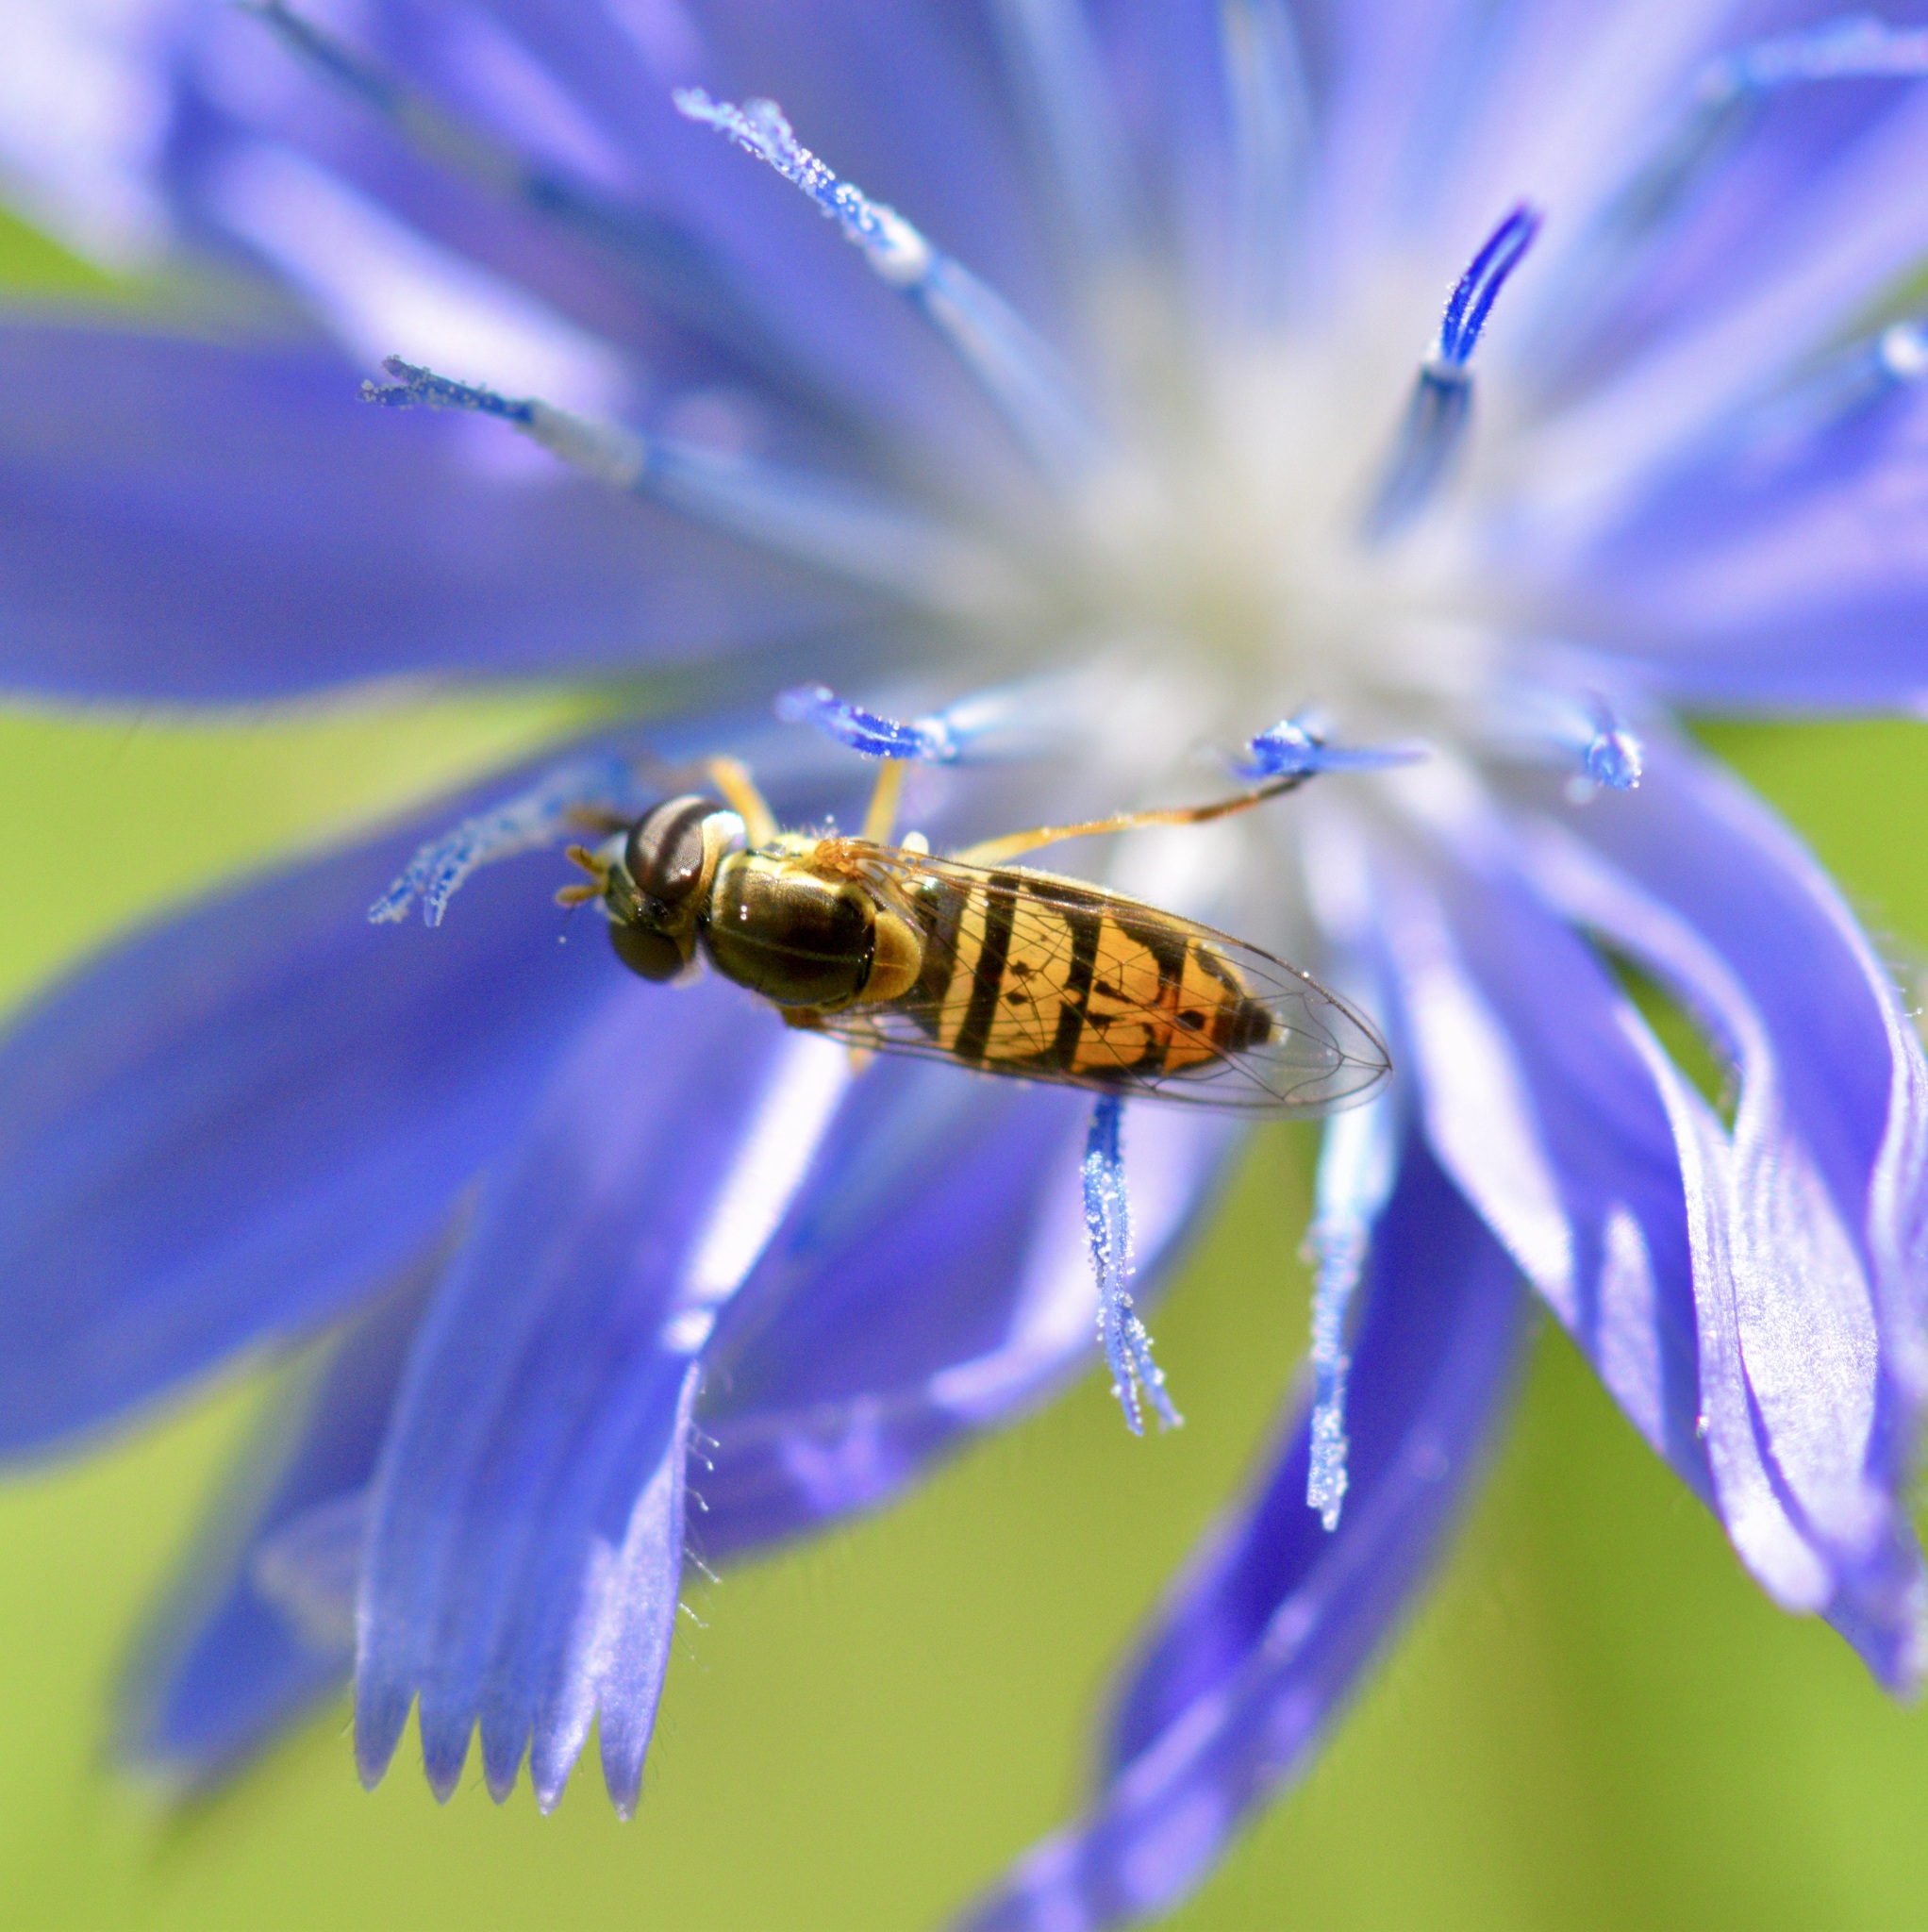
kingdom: Animalia
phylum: Arthropoda
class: Insecta
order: Diptera
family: Syrphidae
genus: Toxomerus
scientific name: Toxomerus marginatus
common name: Syrphid fly
